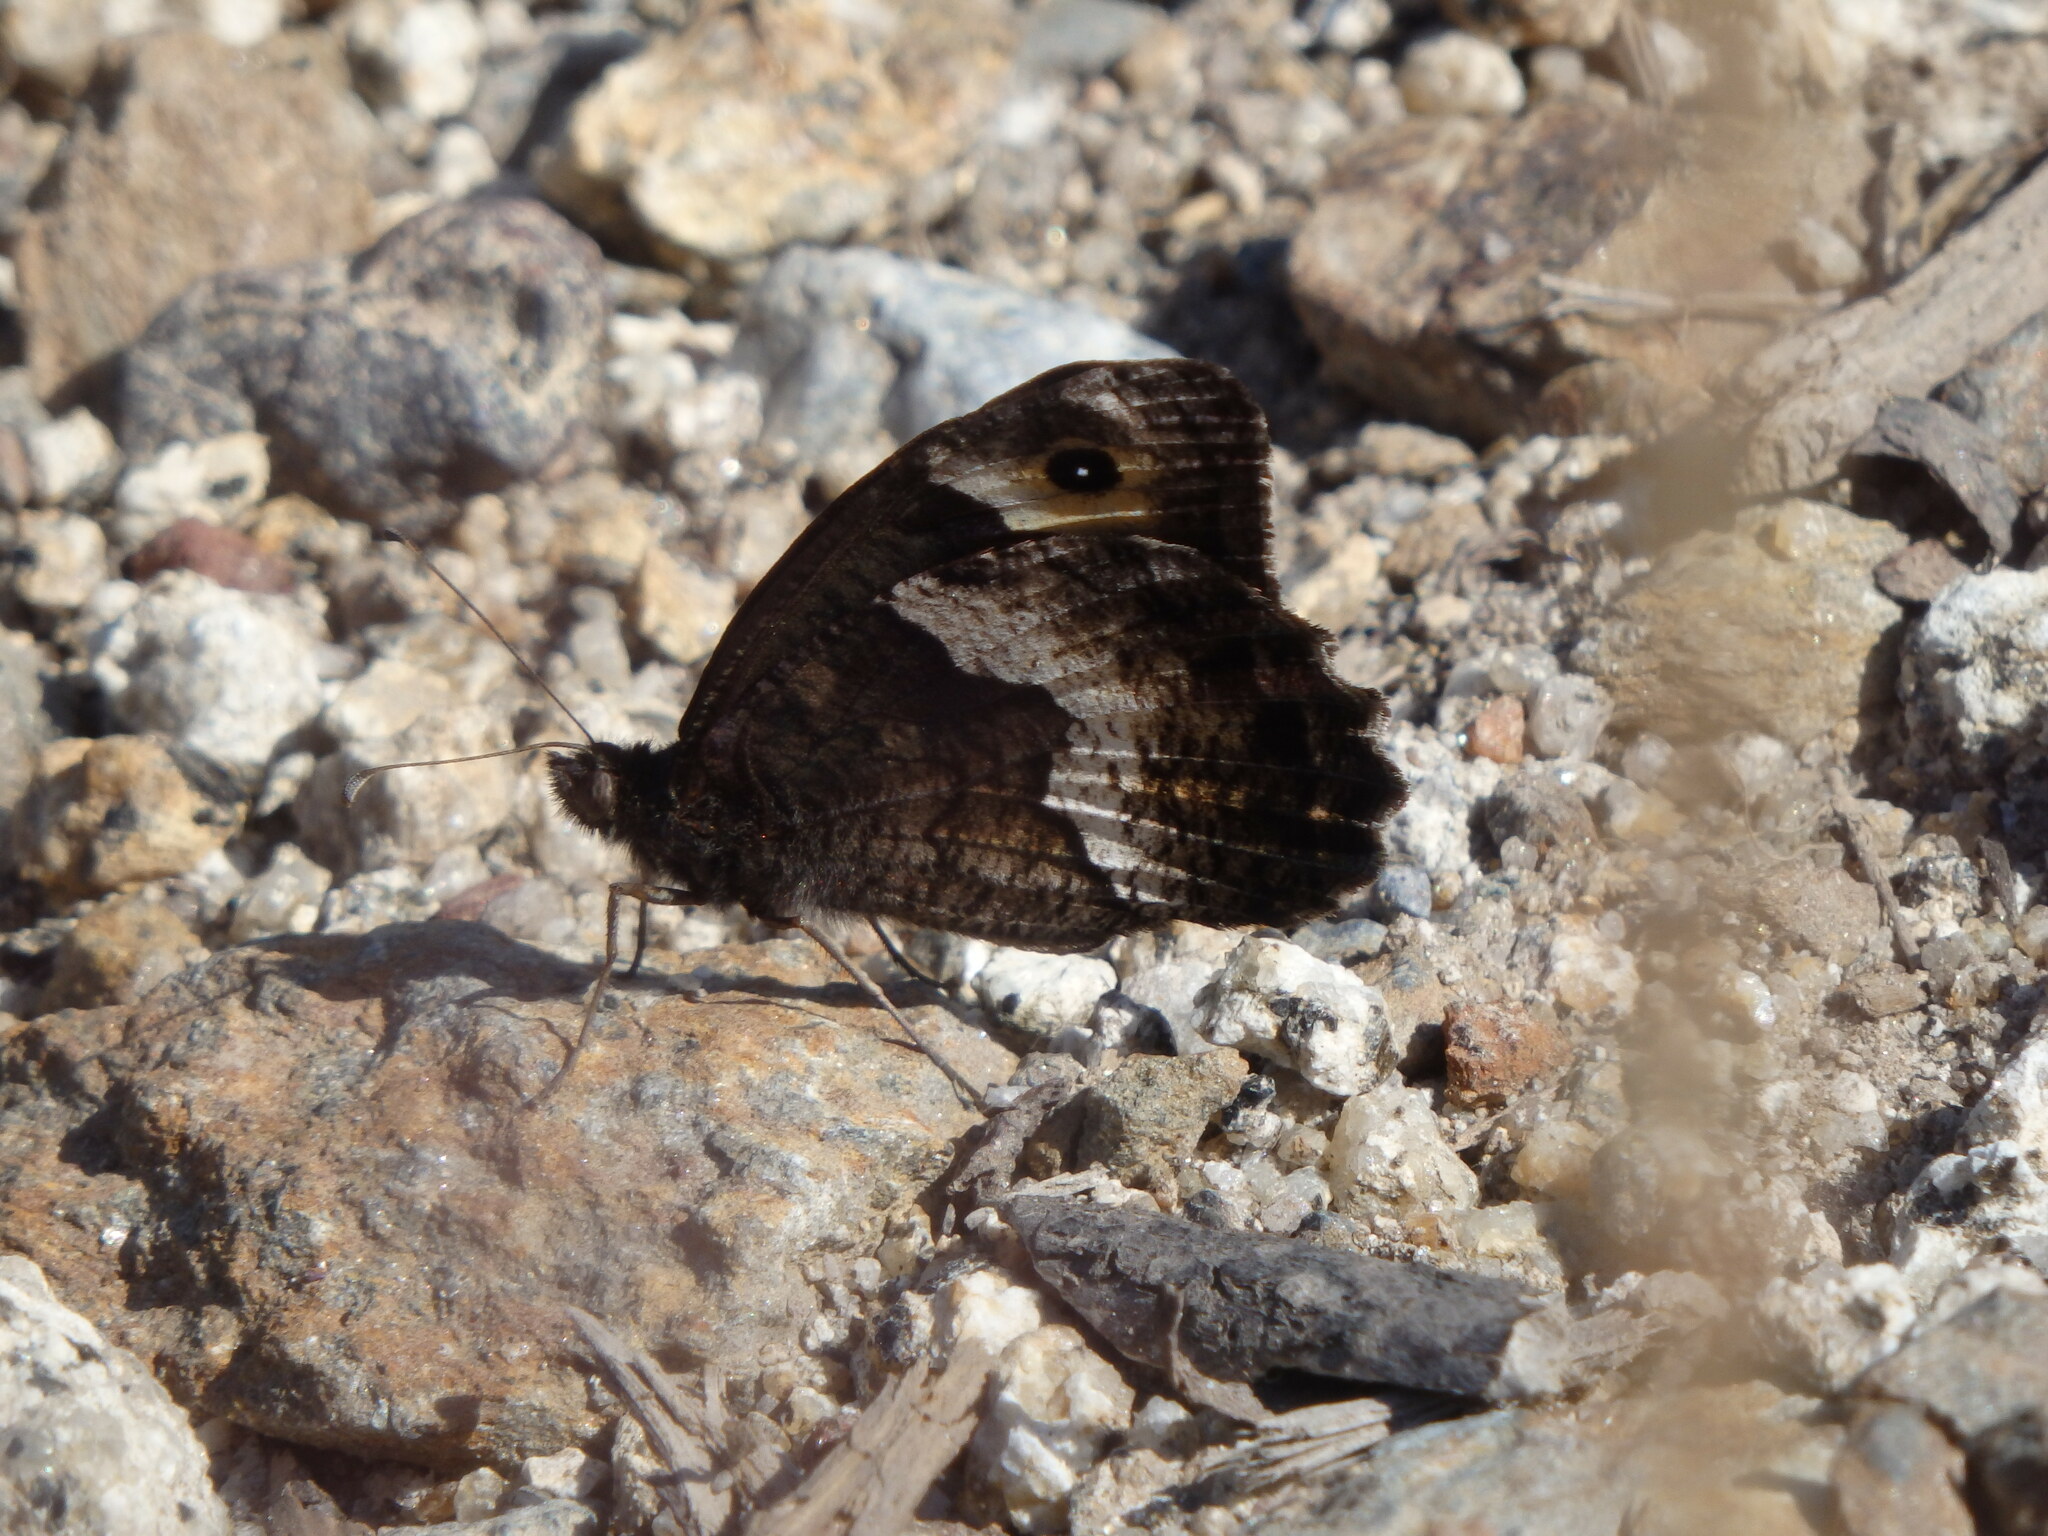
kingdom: Animalia
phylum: Arthropoda
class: Insecta
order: Lepidoptera
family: Nymphalidae
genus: Hipparchia
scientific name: Hipparchia hermione
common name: Rock grayling
